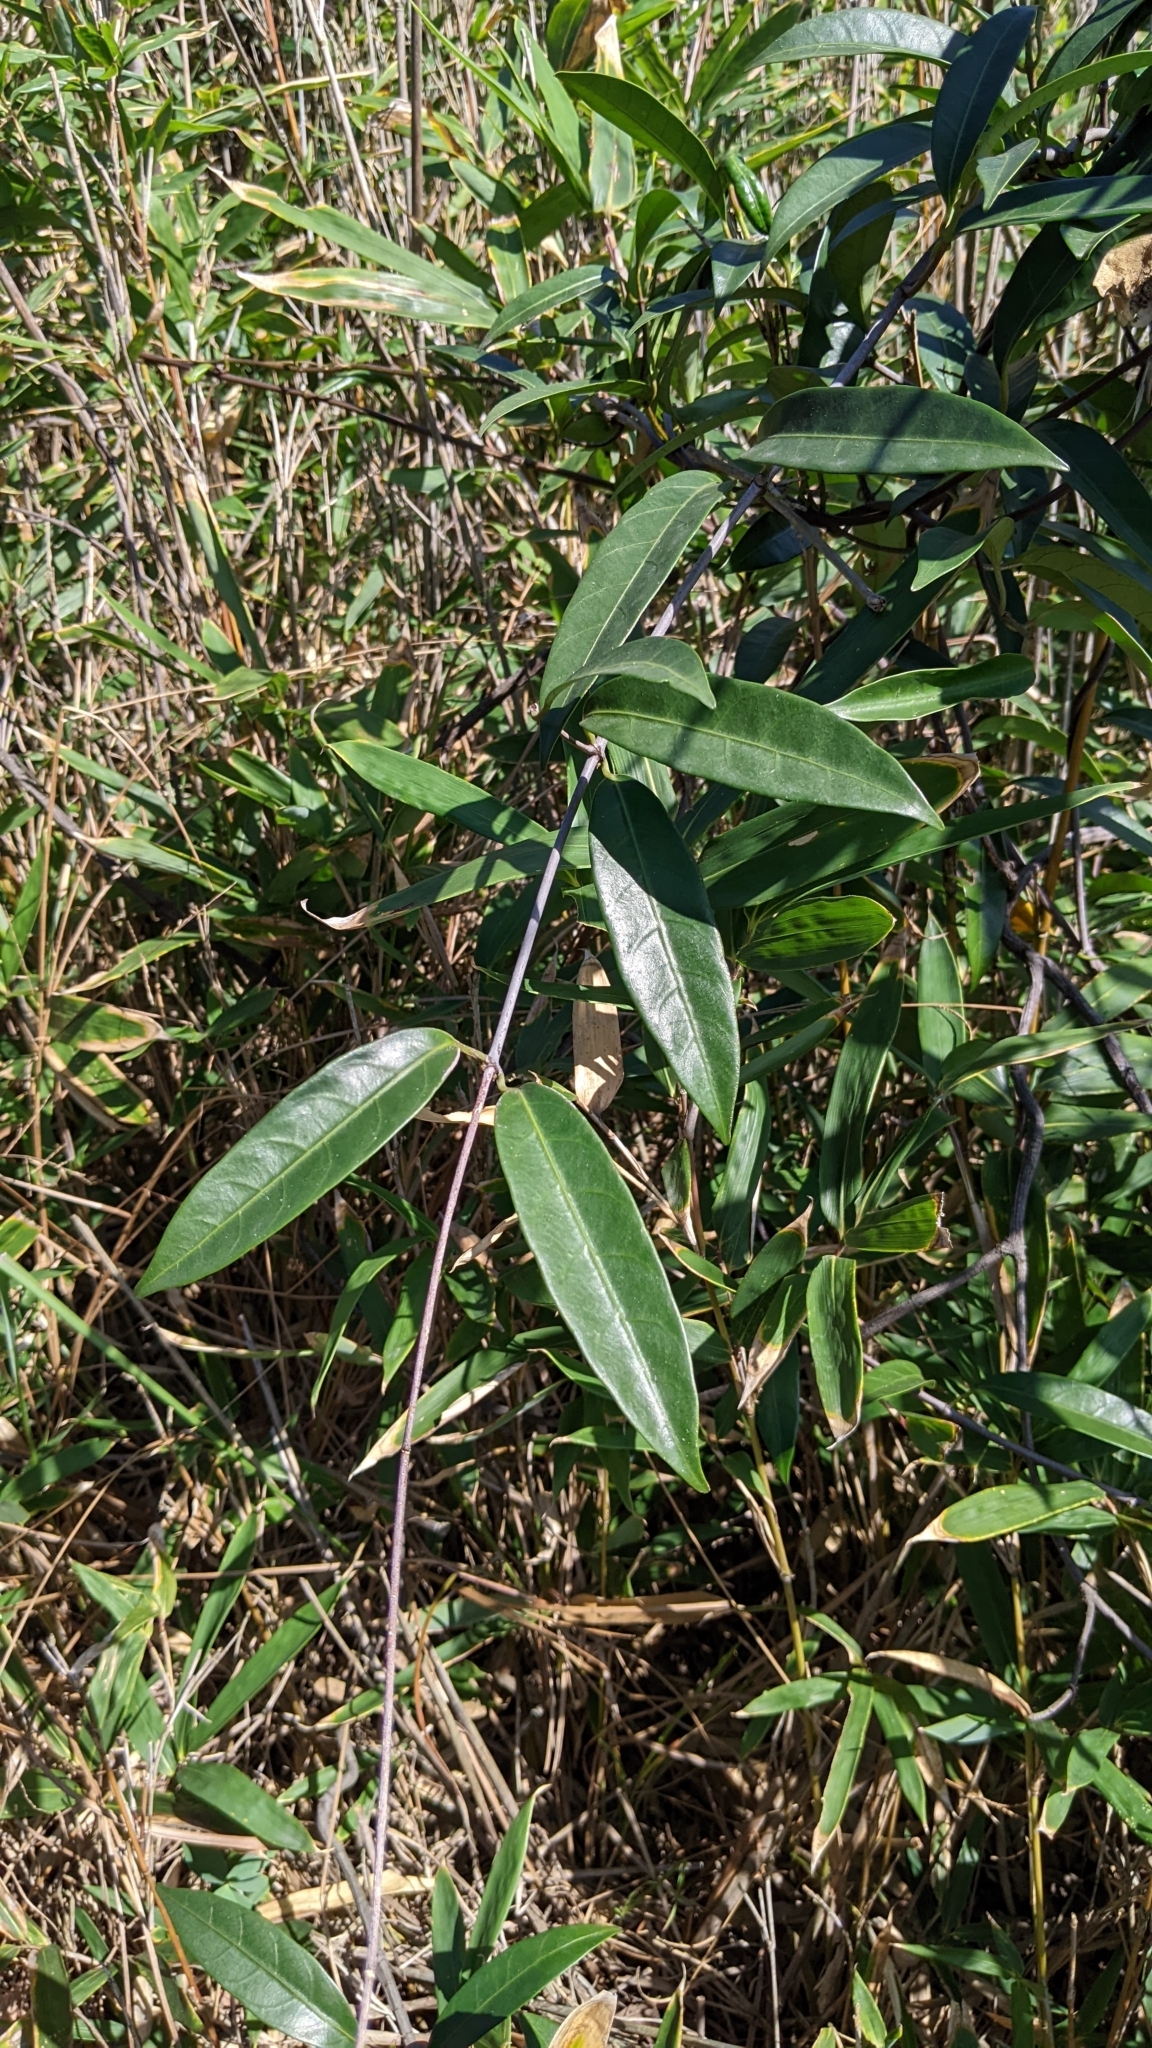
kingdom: Plantae
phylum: Tracheophyta
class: Magnoliopsida
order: Gentianales
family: Apocynaceae
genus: Anodendron
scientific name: Anodendron affine
